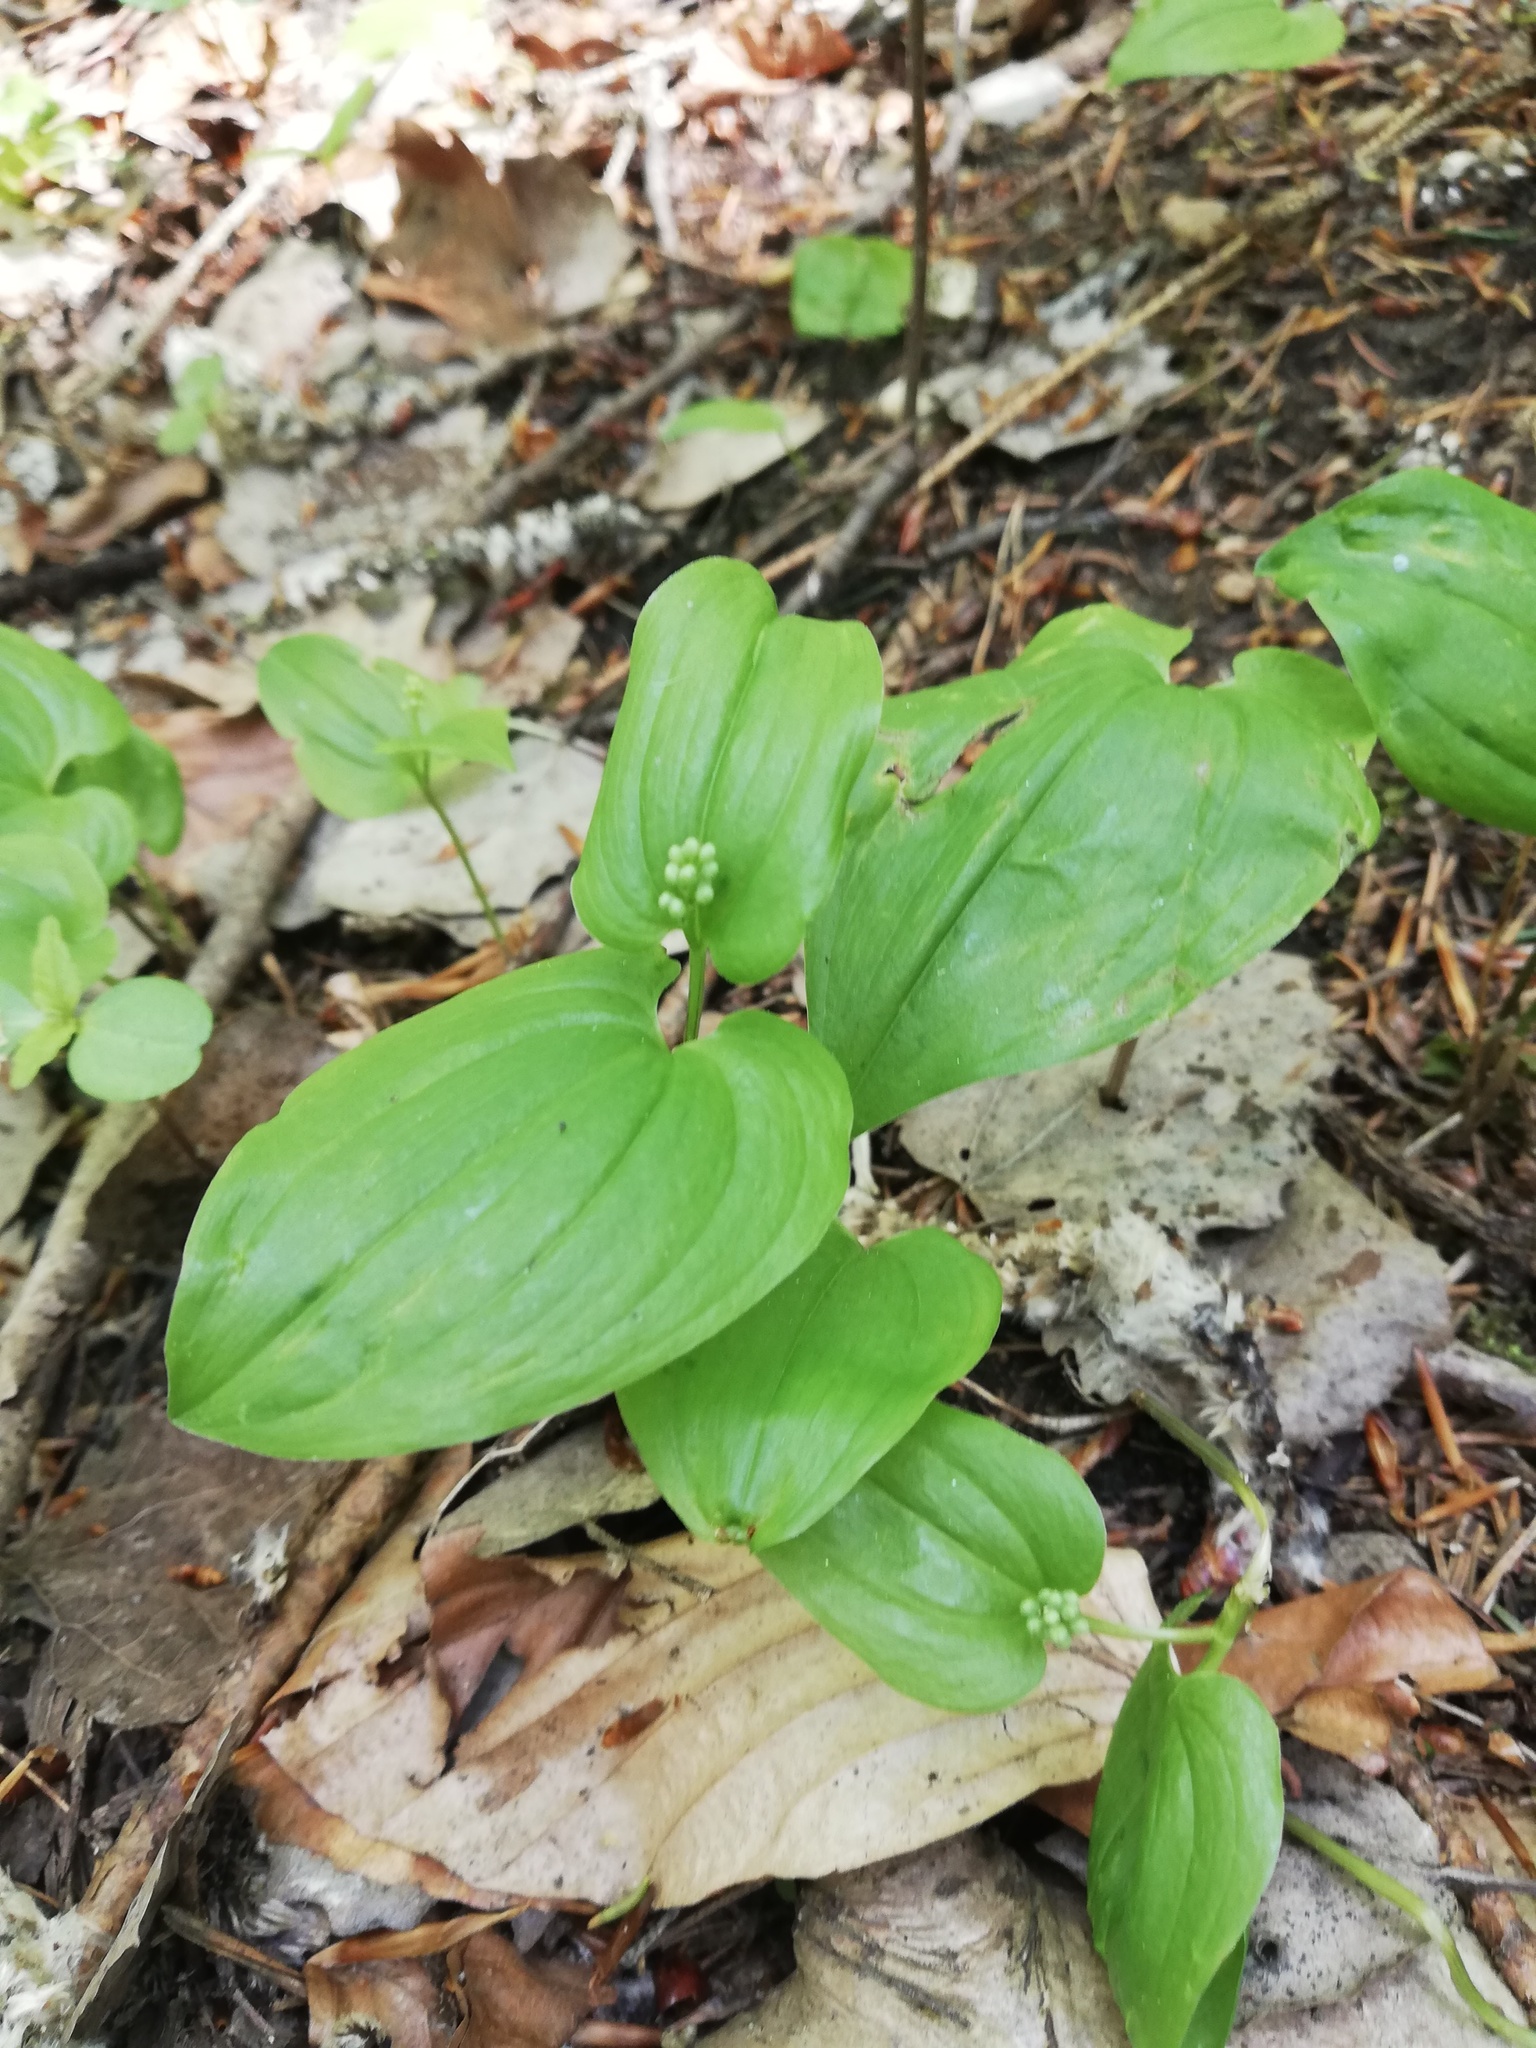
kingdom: Plantae
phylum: Tracheophyta
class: Liliopsida
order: Asparagales
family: Asparagaceae
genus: Maianthemum
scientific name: Maianthemum bifolium
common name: May lily
